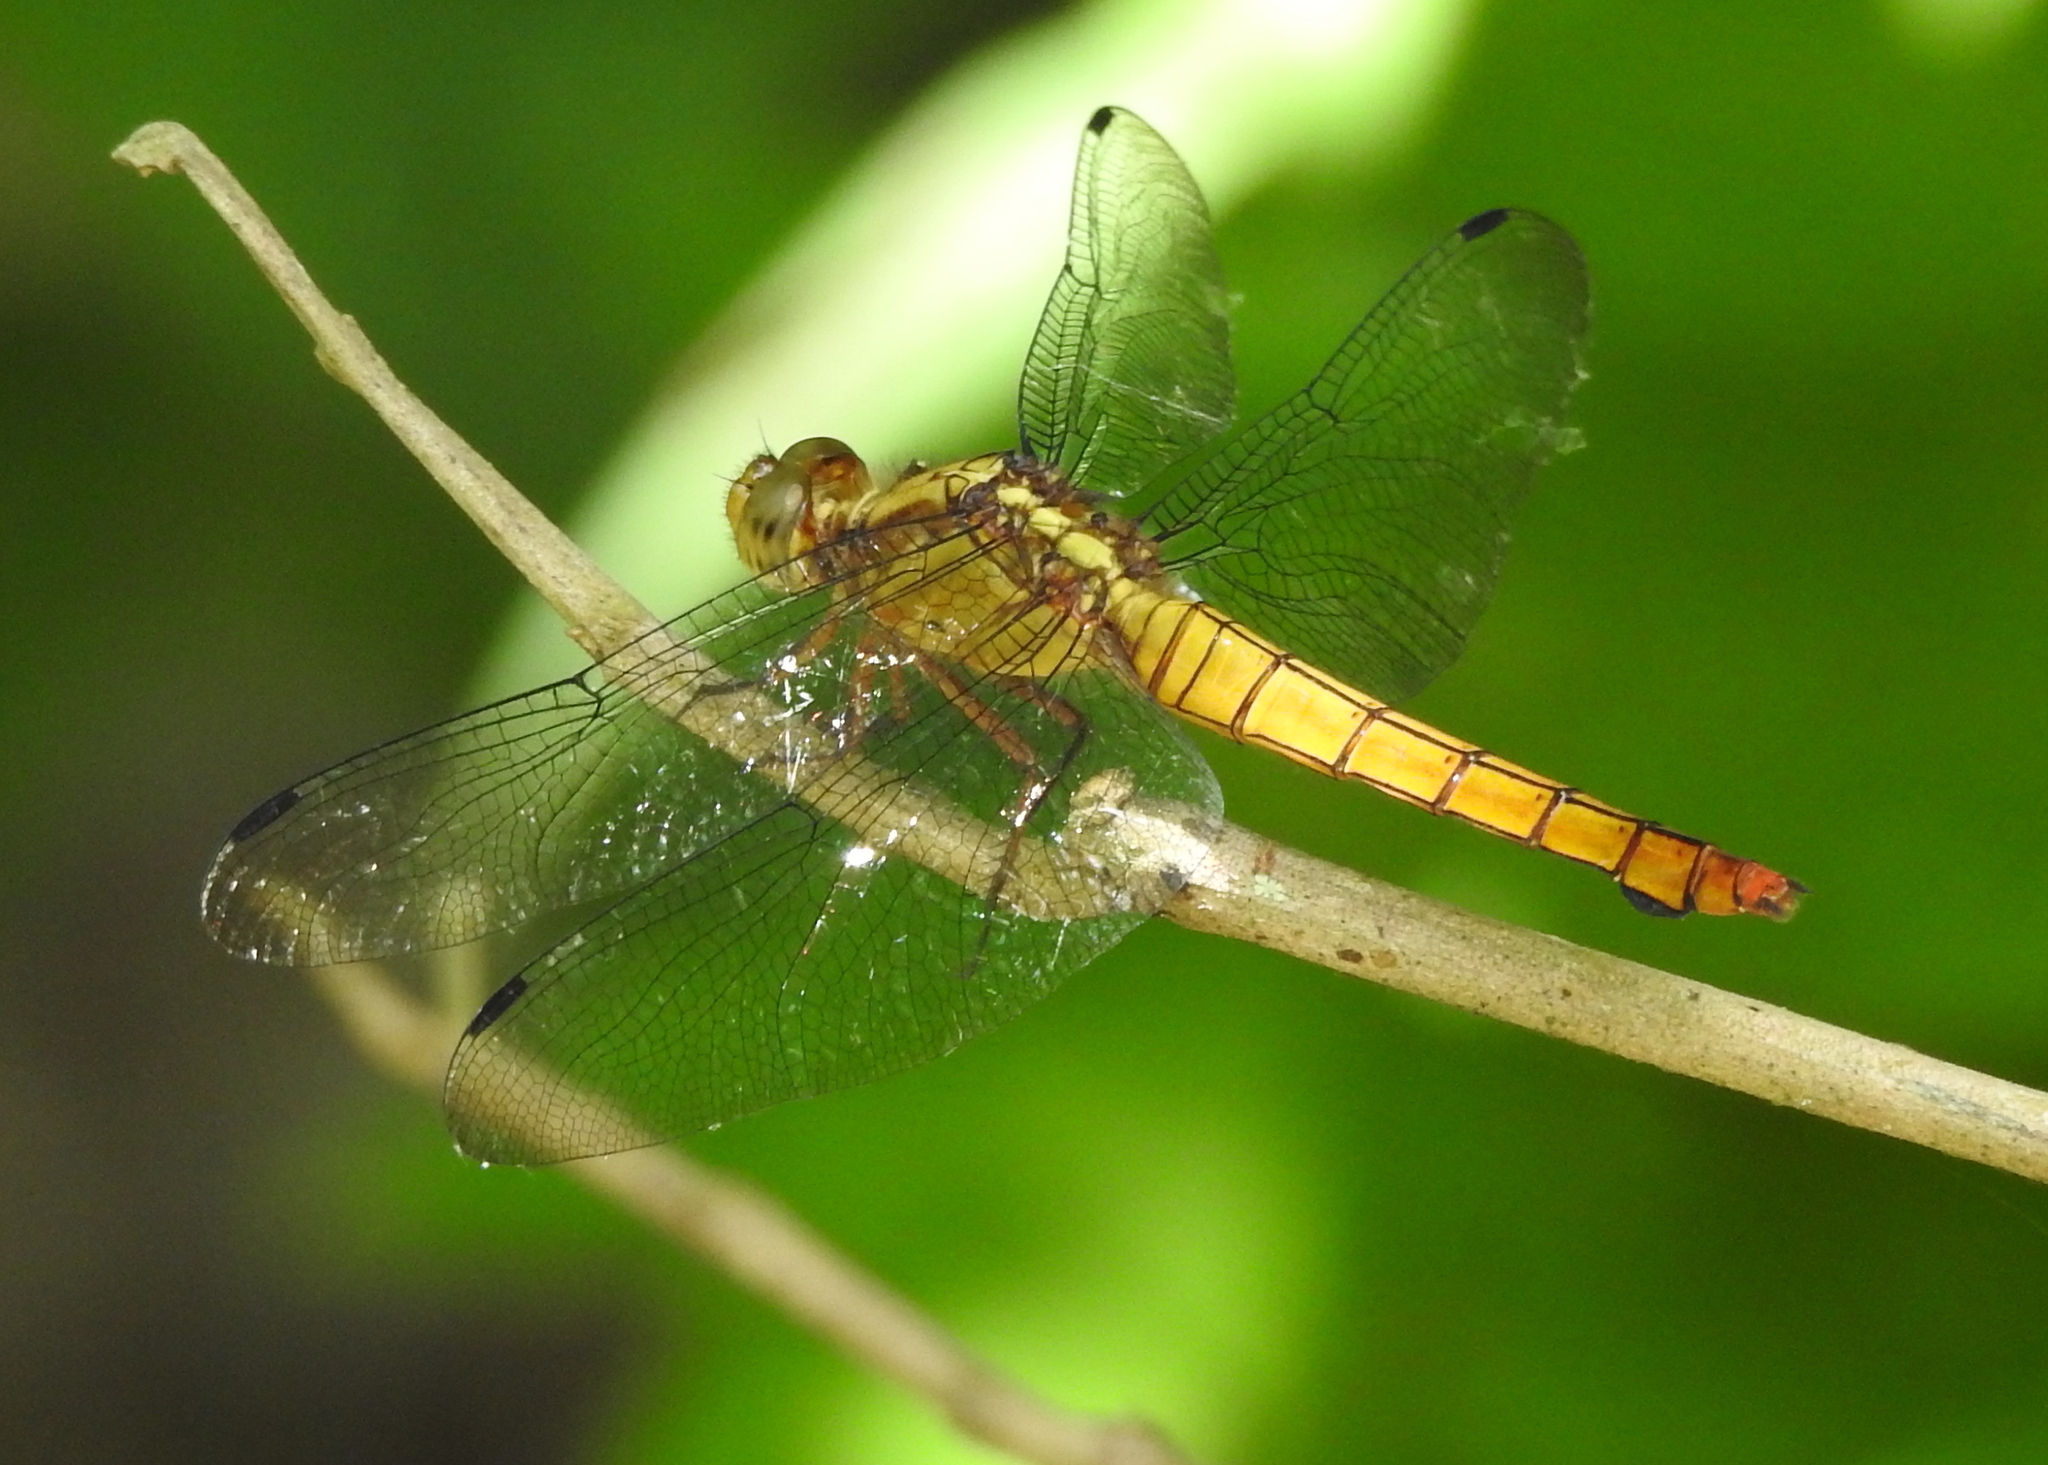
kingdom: Animalia
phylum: Arthropoda
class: Insecta
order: Odonata
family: Libellulidae
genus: Orthetrum
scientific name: Orthetrum testaceum
